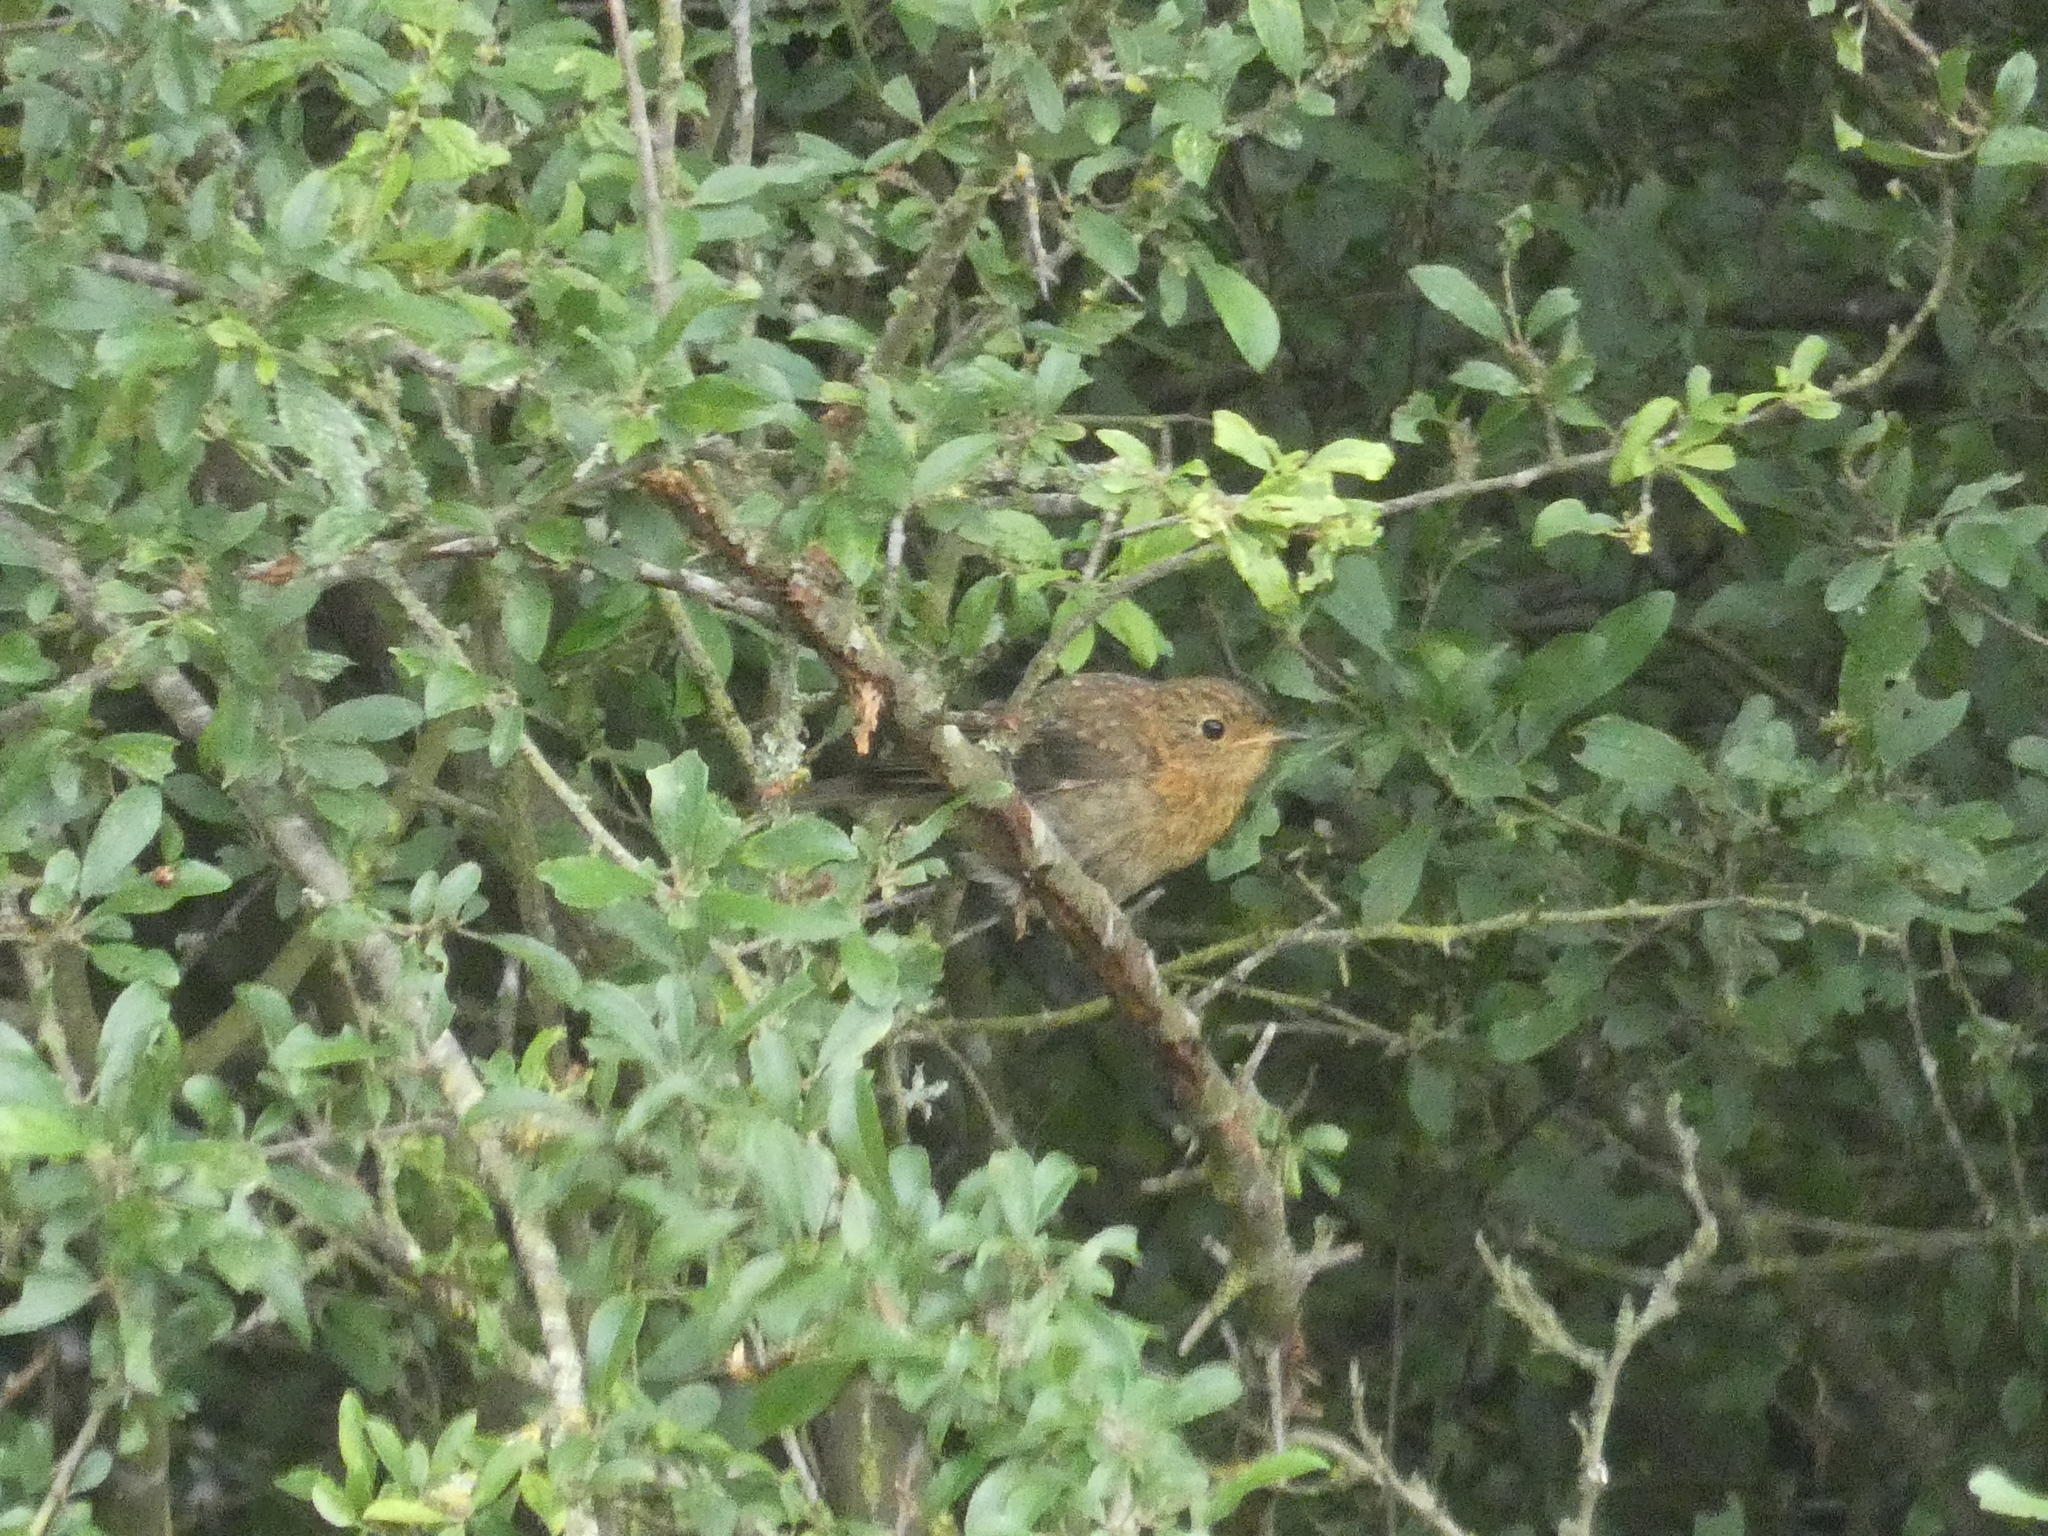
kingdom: Animalia
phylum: Chordata
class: Aves
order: Passeriformes
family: Muscicapidae
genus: Erithacus
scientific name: Erithacus rubecula
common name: European robin
